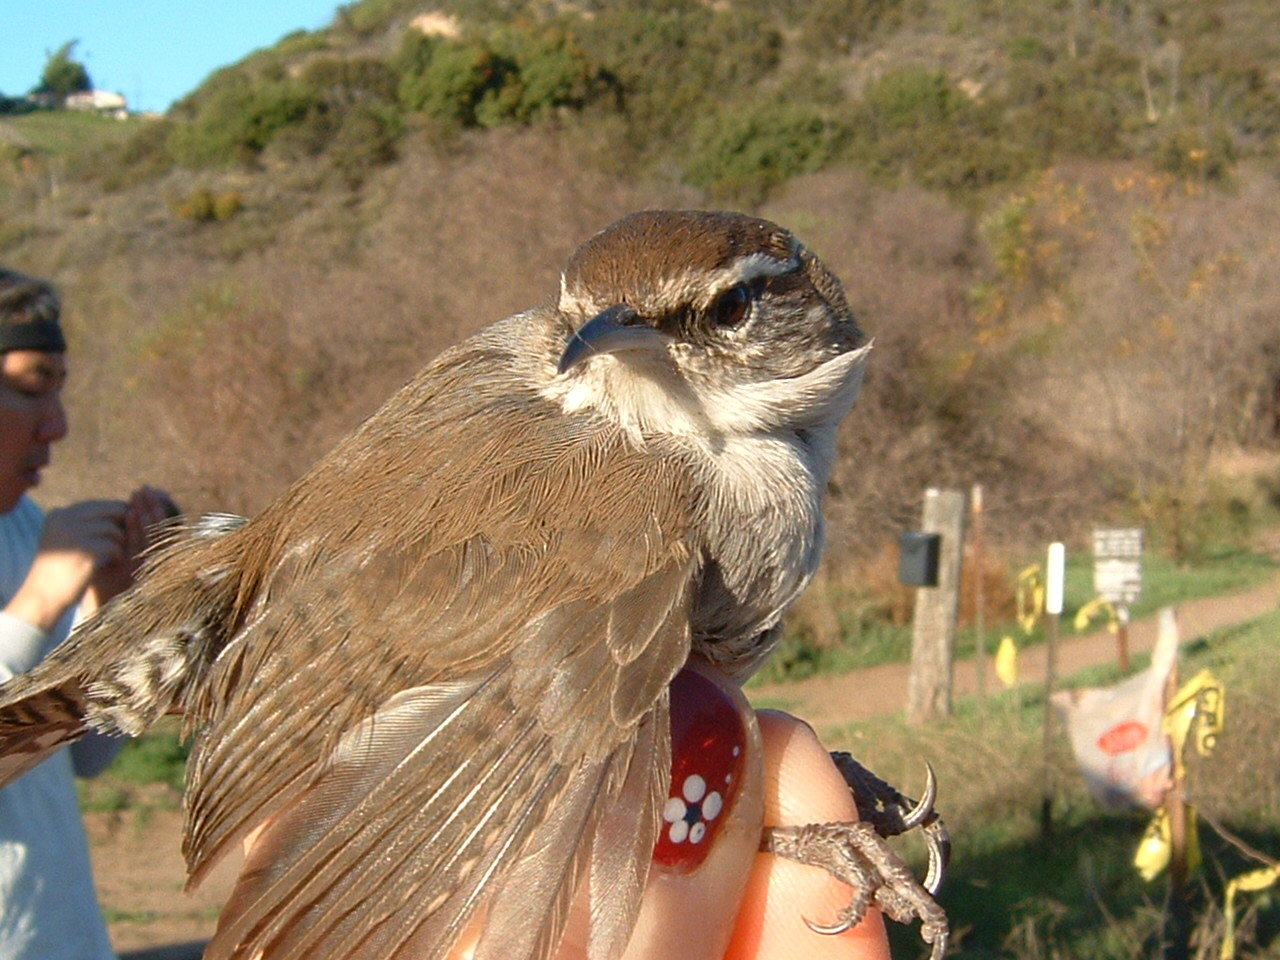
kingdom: Animalia
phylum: Chordata
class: Aves
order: Passeriformes
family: Troglodytidae
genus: Thryomanes
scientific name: Thryomanes bewickii
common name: Bewick's wren
